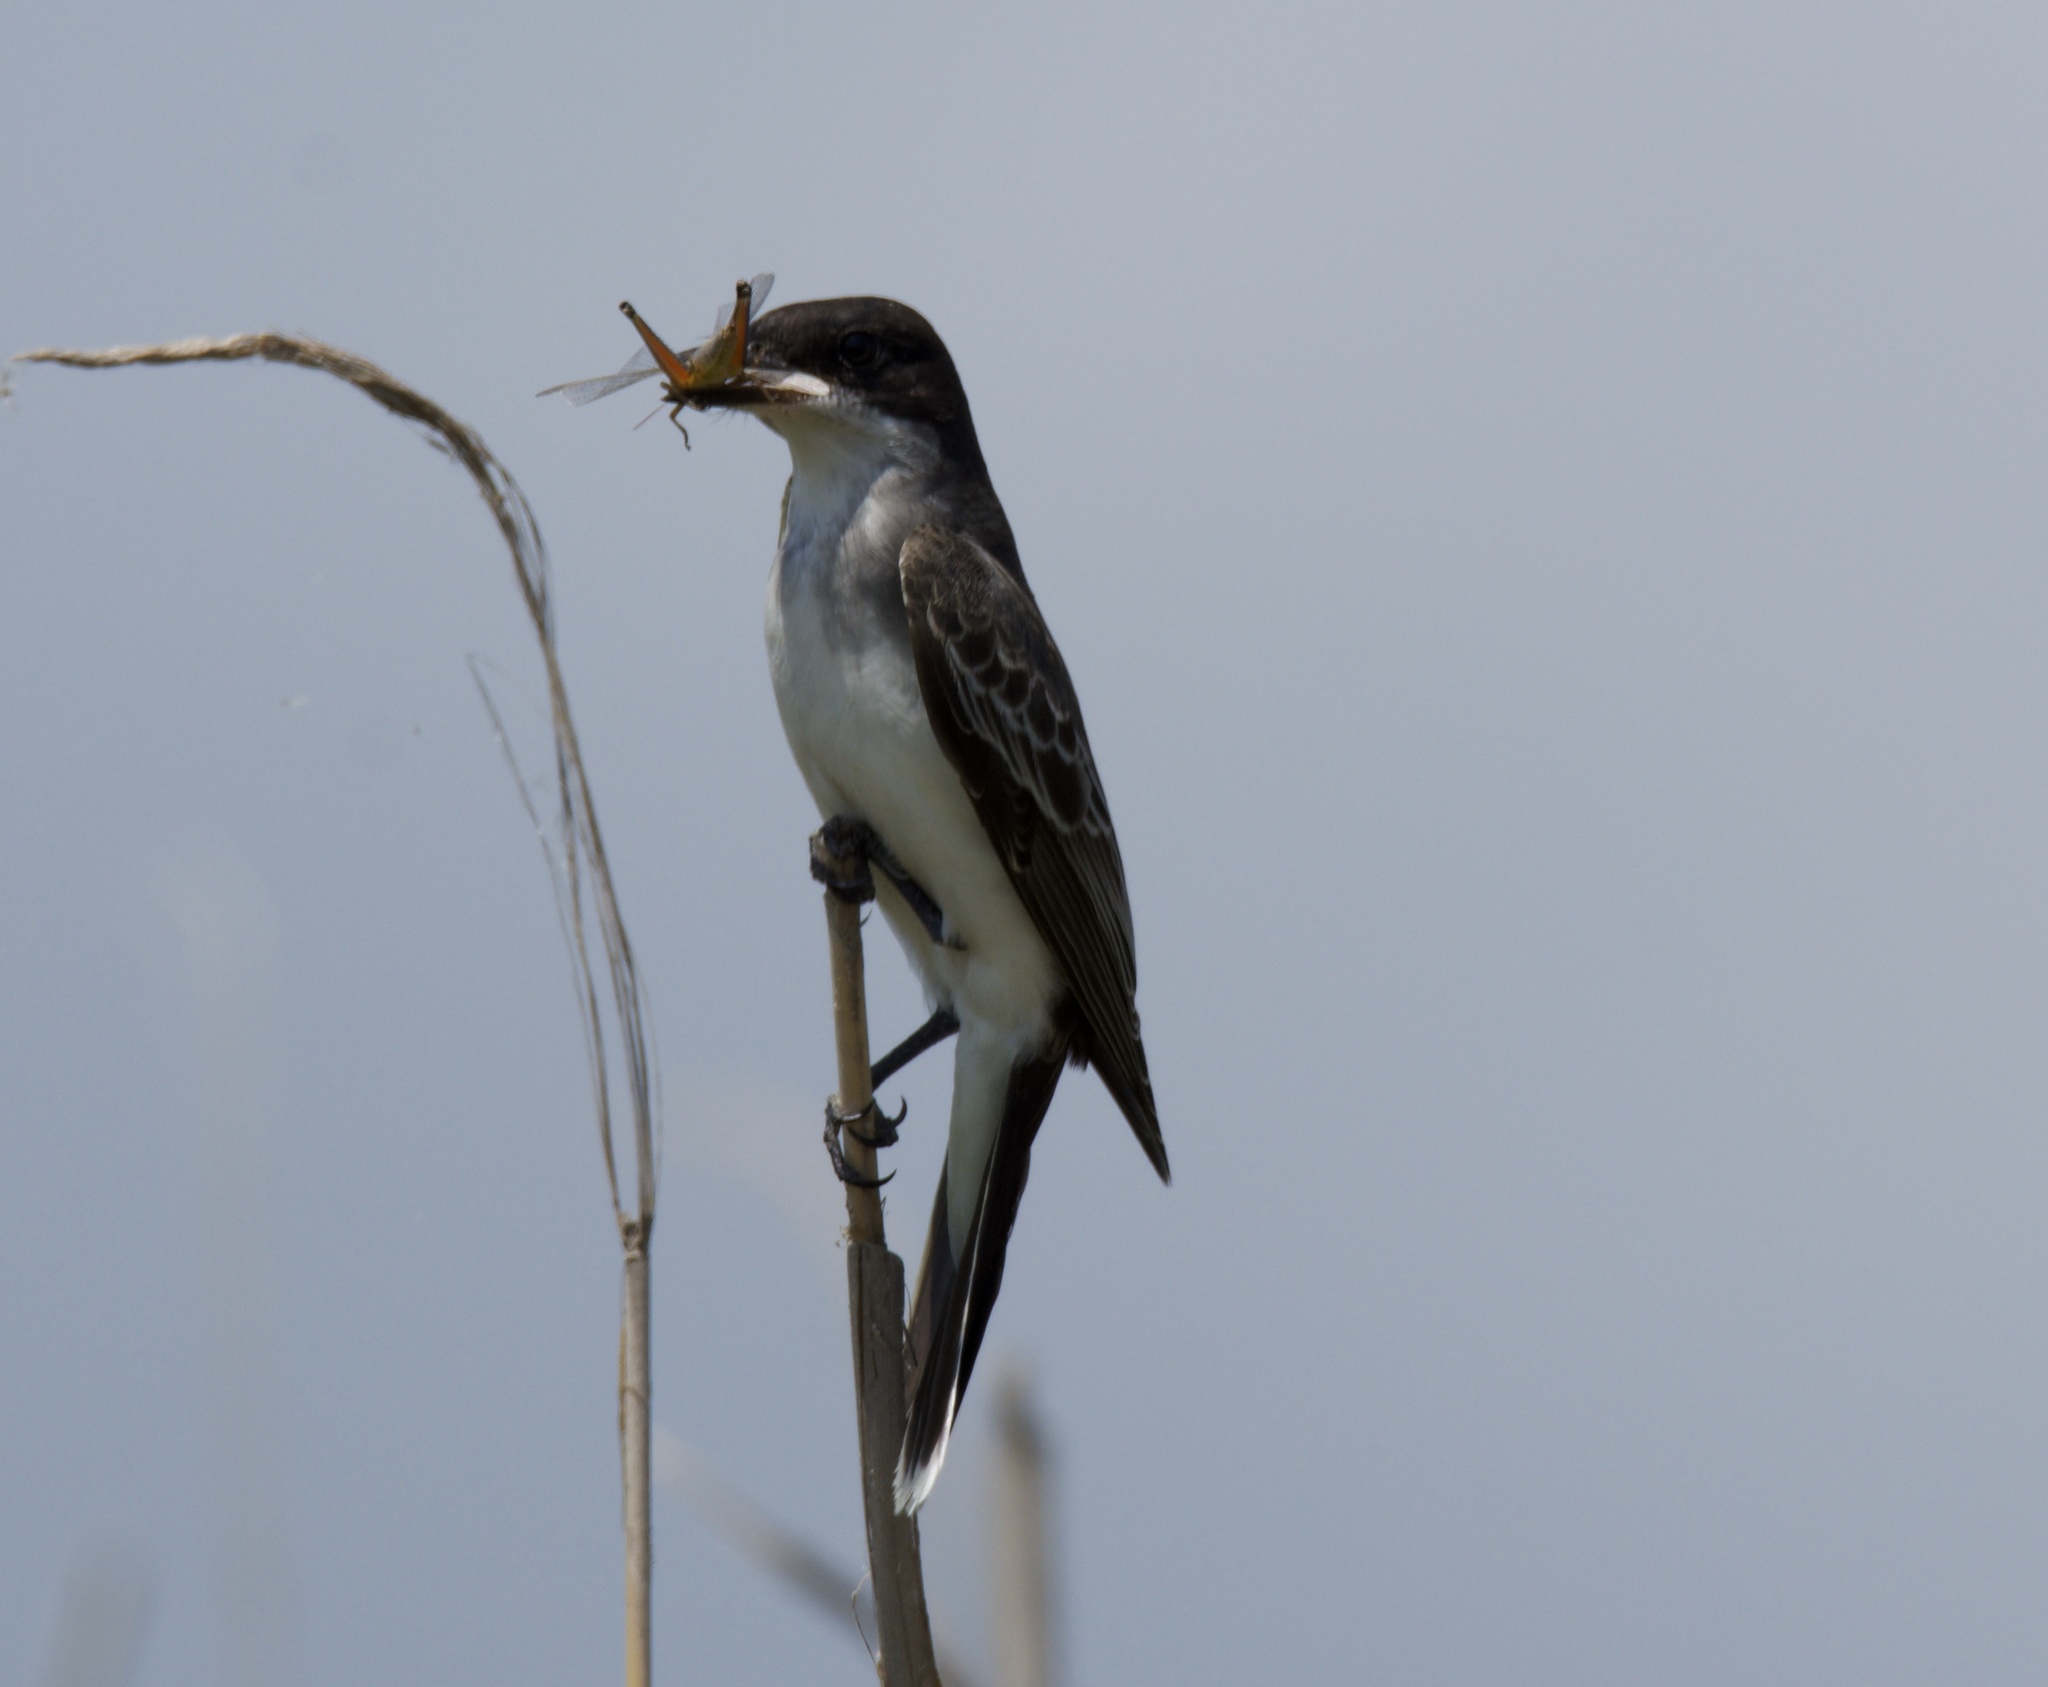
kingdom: Animalia
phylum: Chordata
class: Aves
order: Passeriformes
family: Tyrannidae
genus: Tyrannus
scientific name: Tyrannus tyrannus
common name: Eastern kingbird
